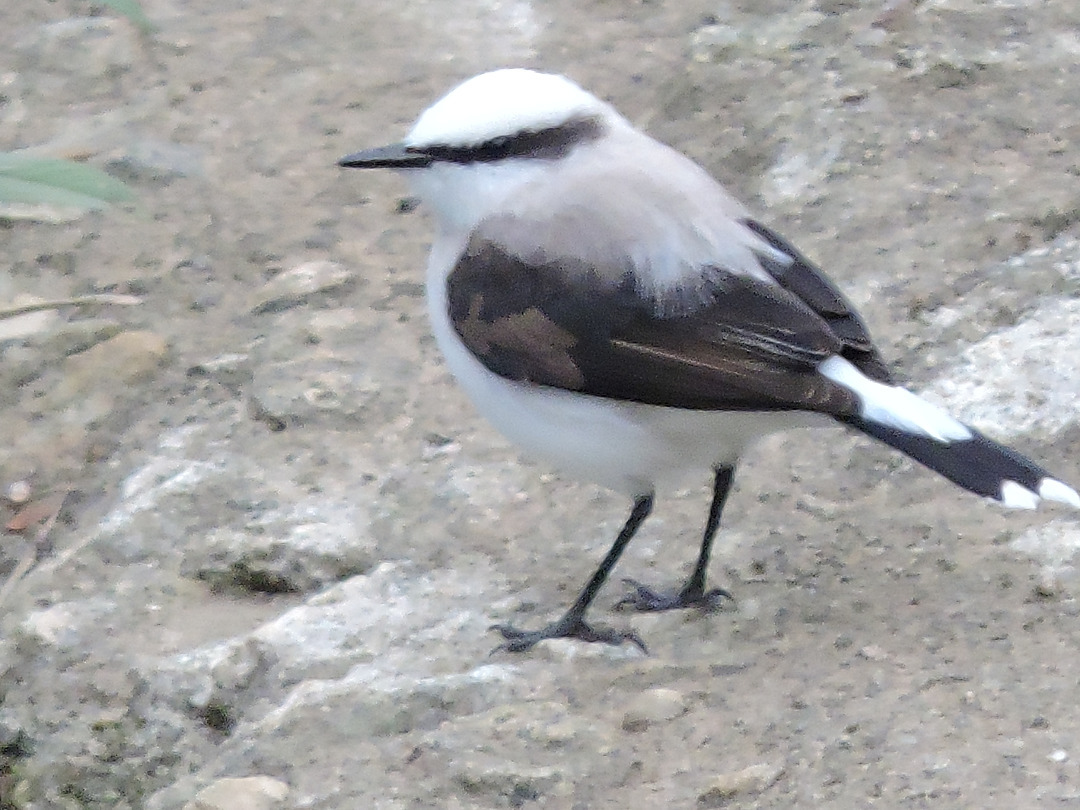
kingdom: Animalia
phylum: Chordata
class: Aves
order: Passeriformes
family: Tyrannidae
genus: Fluvicola
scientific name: Fluvicola nengeta
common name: Masked water tyrant
